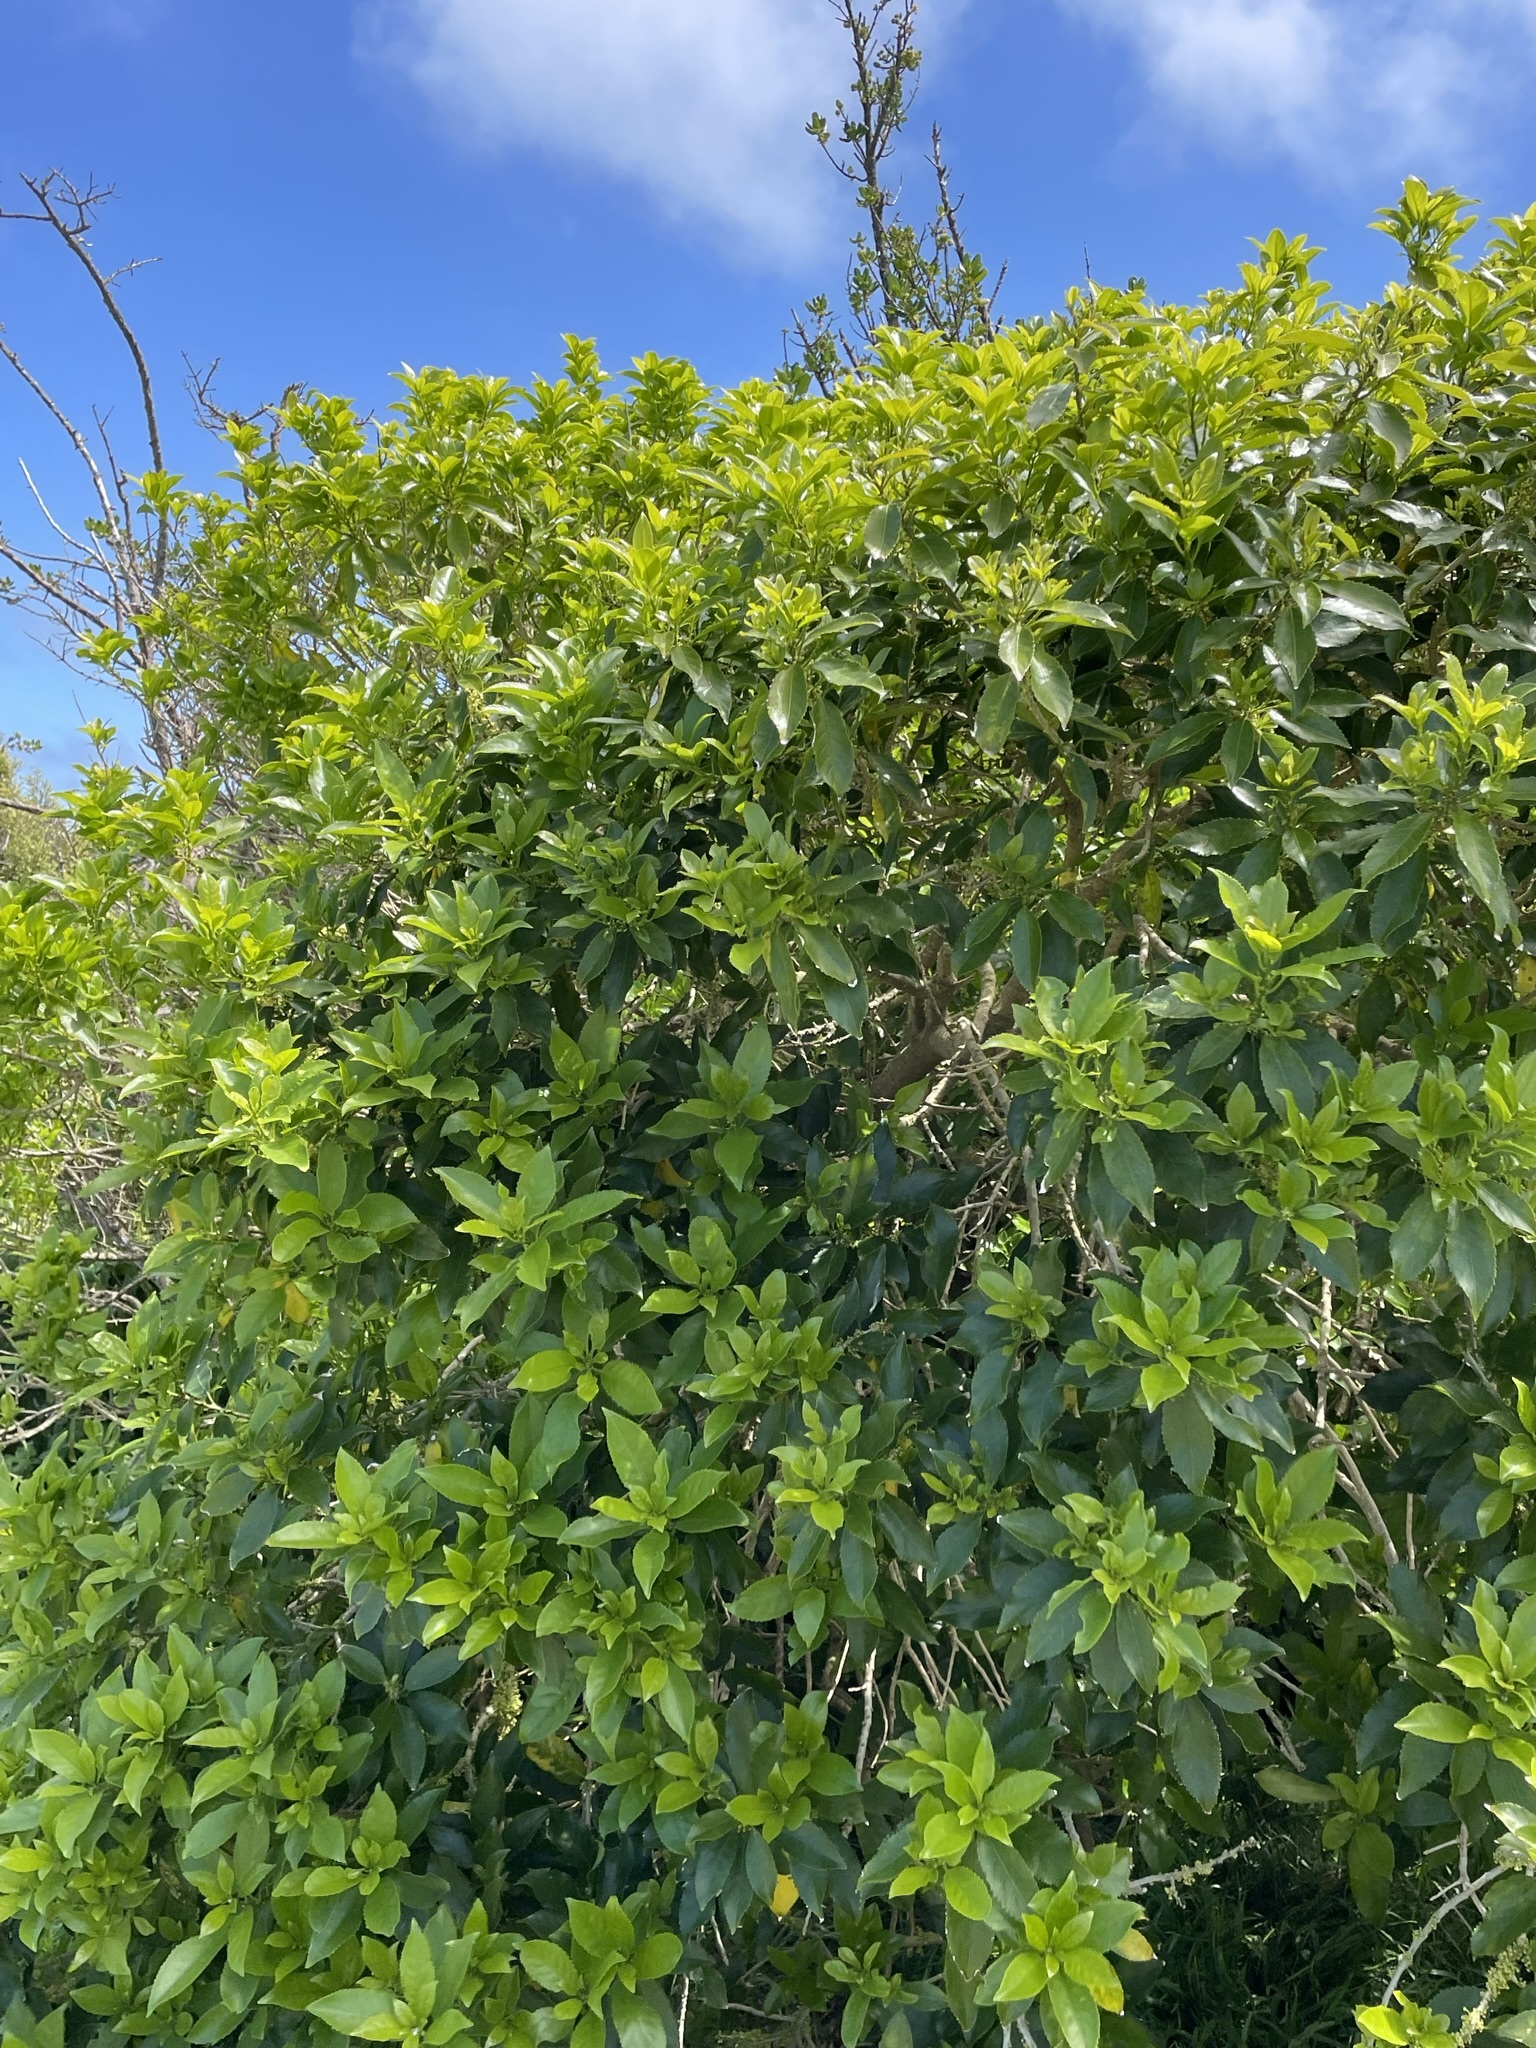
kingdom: Plantae
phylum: Tracheophyta
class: Magnoliopsida
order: Malpighiales
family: Violaceae
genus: Melicytus
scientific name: Melicytus ramiflorus
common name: Mahoe
